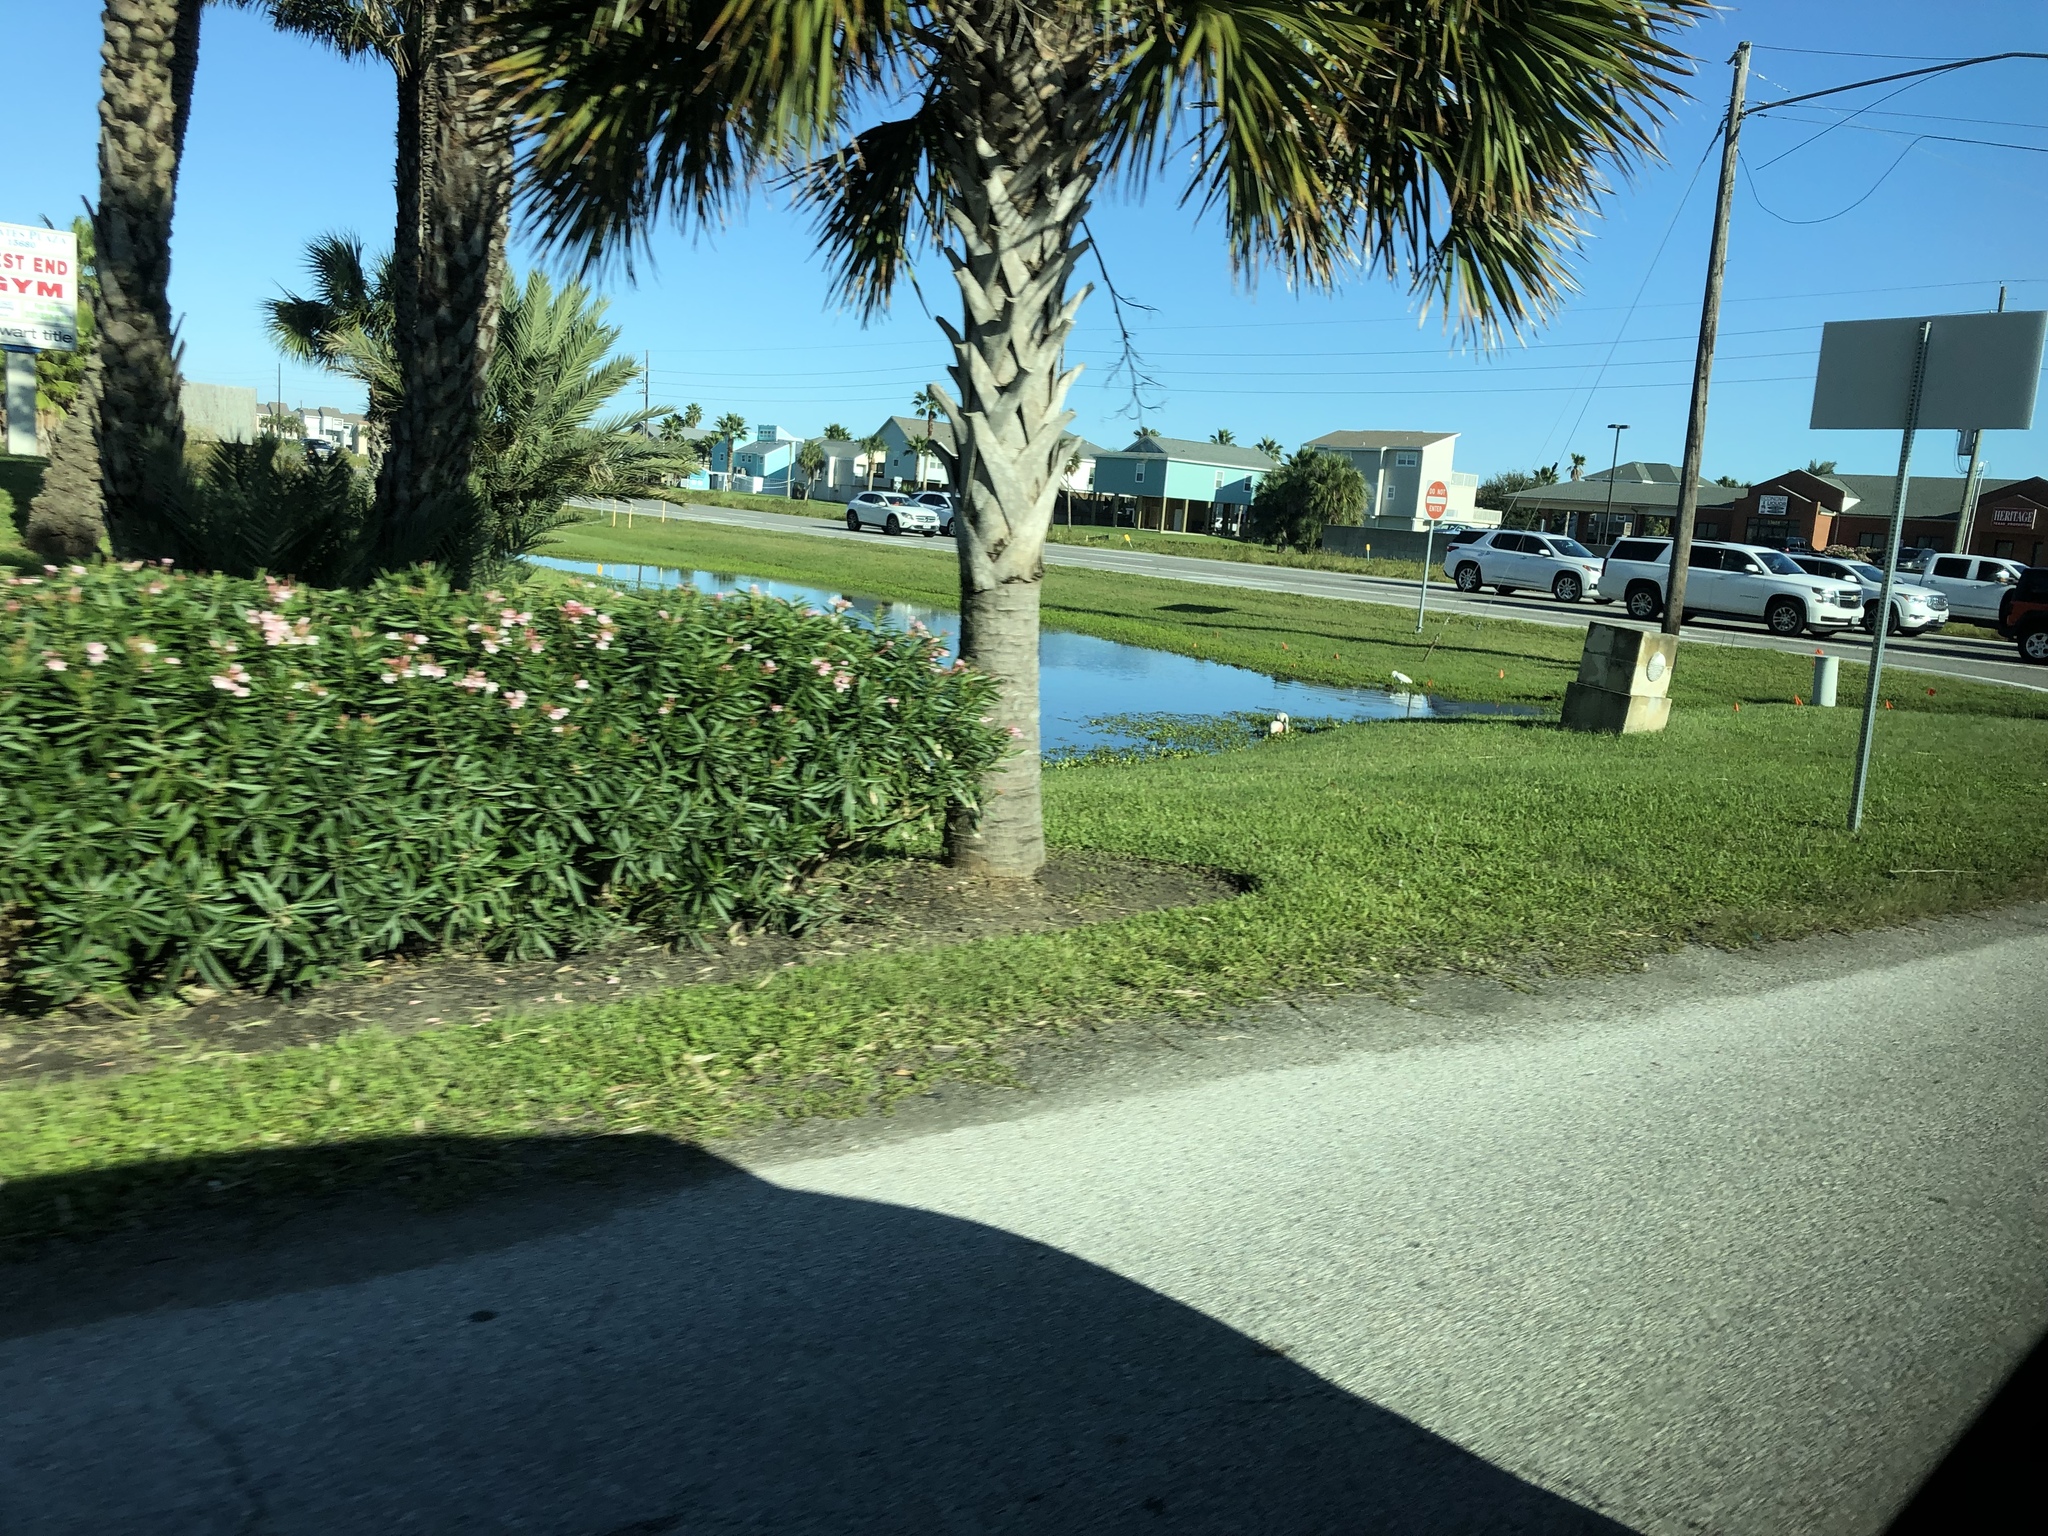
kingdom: Animalia
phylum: Chordata
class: Aves
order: Pelecaniformes
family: Threskiornithidae
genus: Platalea
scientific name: Platalea ajaja
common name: Roseate spoonbill
